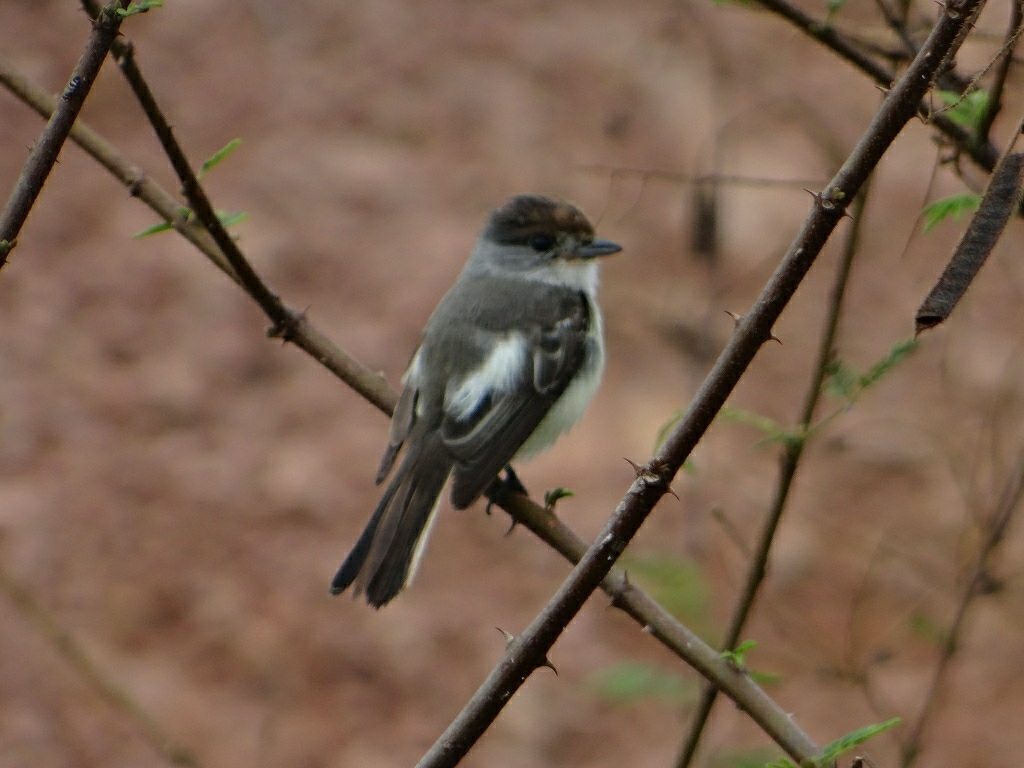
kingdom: Animalia
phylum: Chordata
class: Aves
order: Passeriformes
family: Cotingidae
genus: Xenopsaris
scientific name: Xenopsaris albinucha
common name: White-naped xenopsaris
